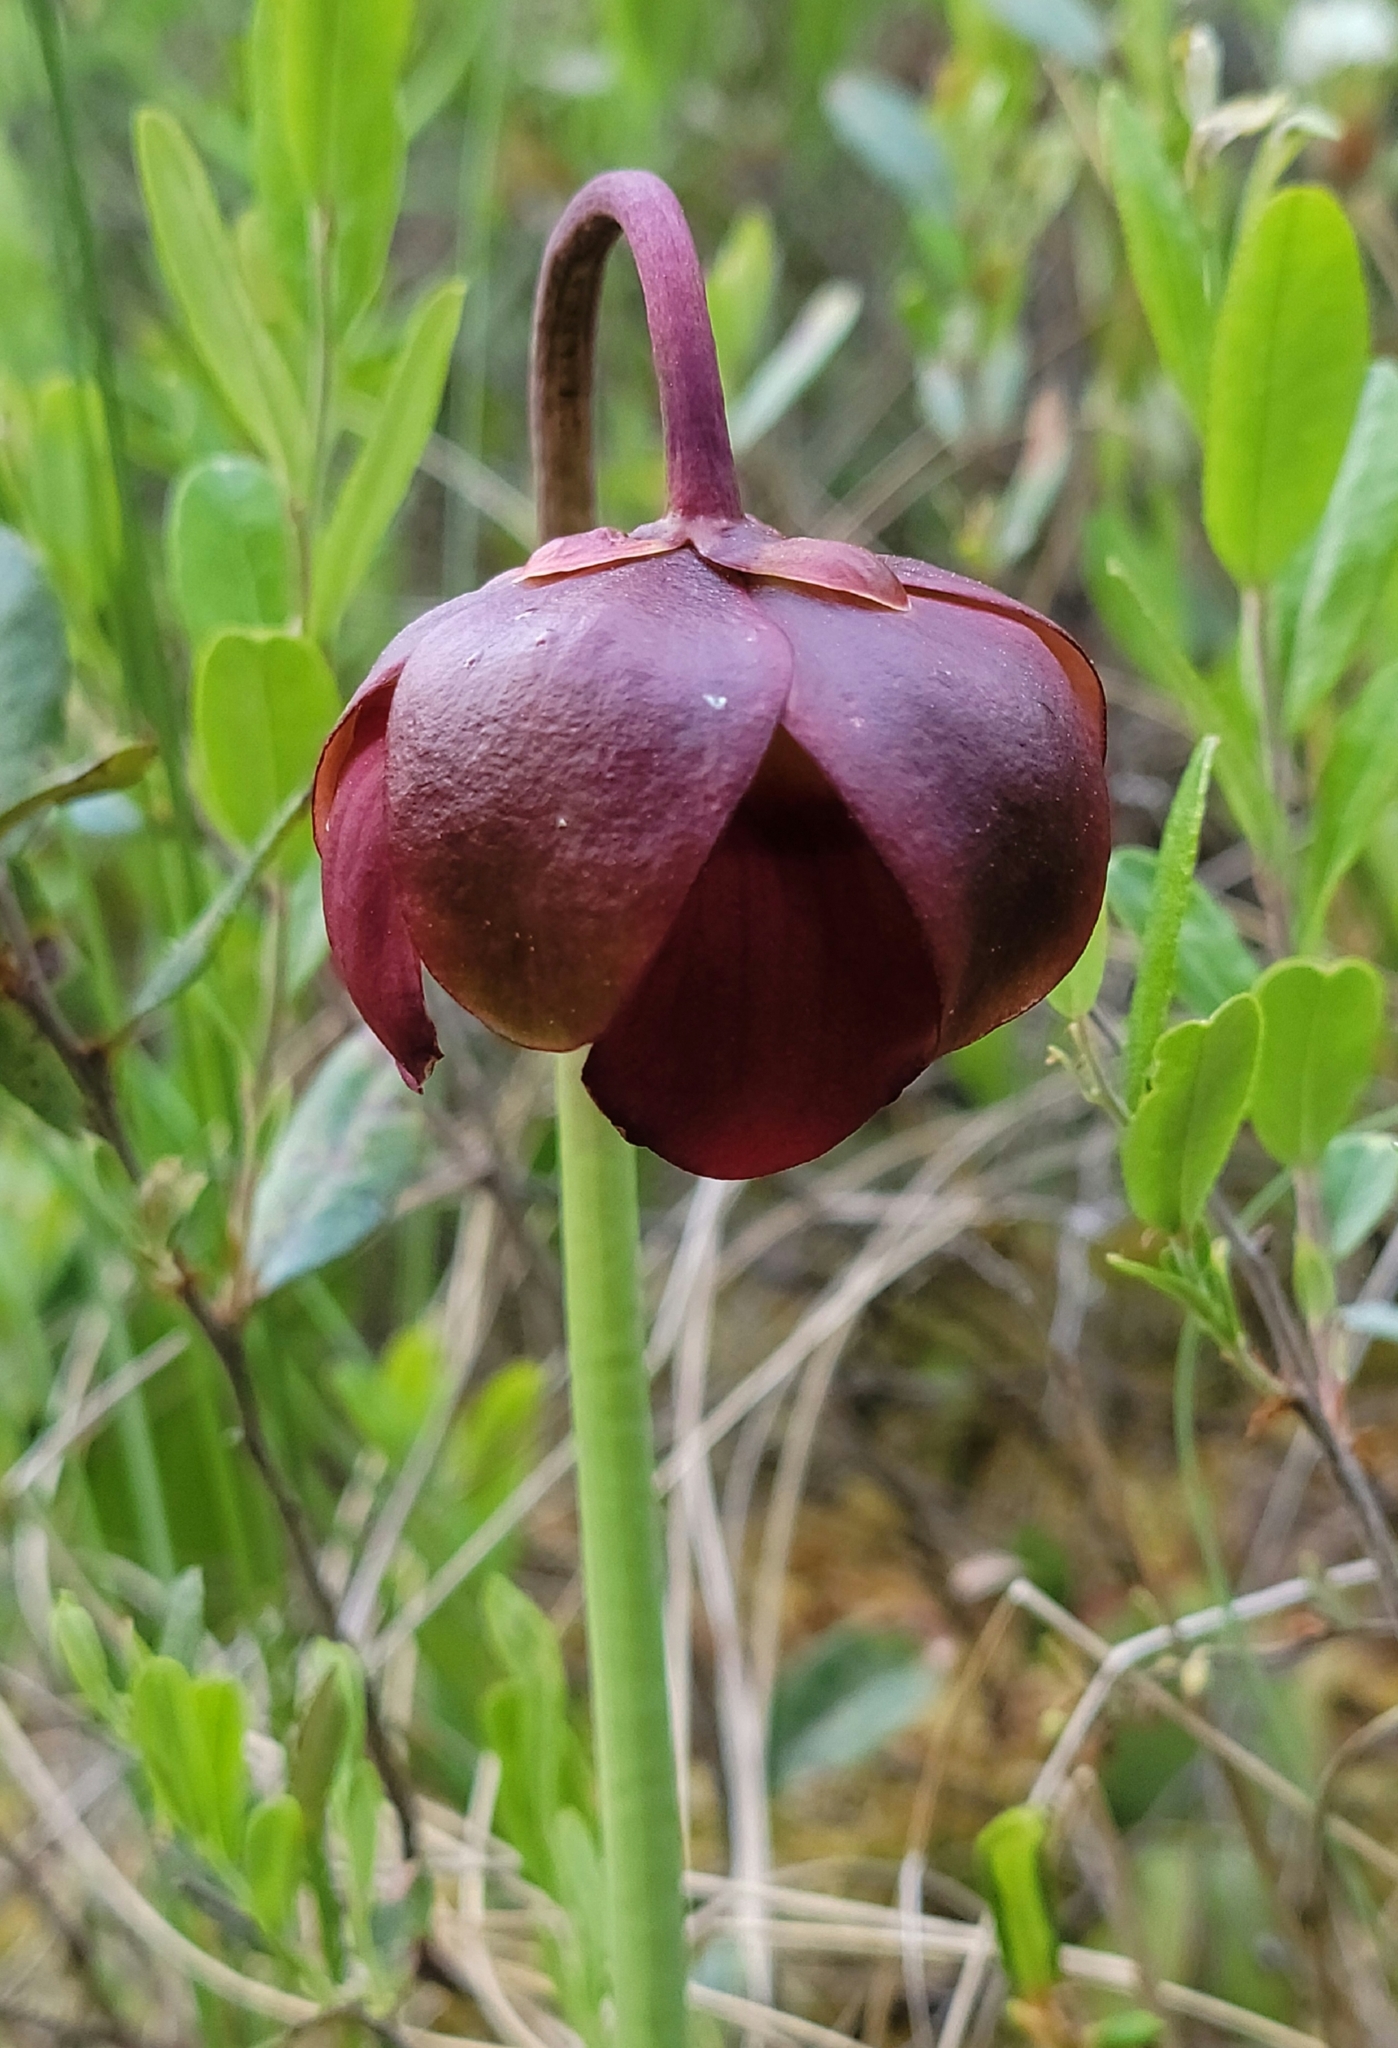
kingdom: Plantae
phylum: Tracheophyta
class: Magnoliopsida
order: Ericales
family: Sarraceniaceae
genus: Sarracenia
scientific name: Sarracenia purpurea
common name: Pitcherplant
